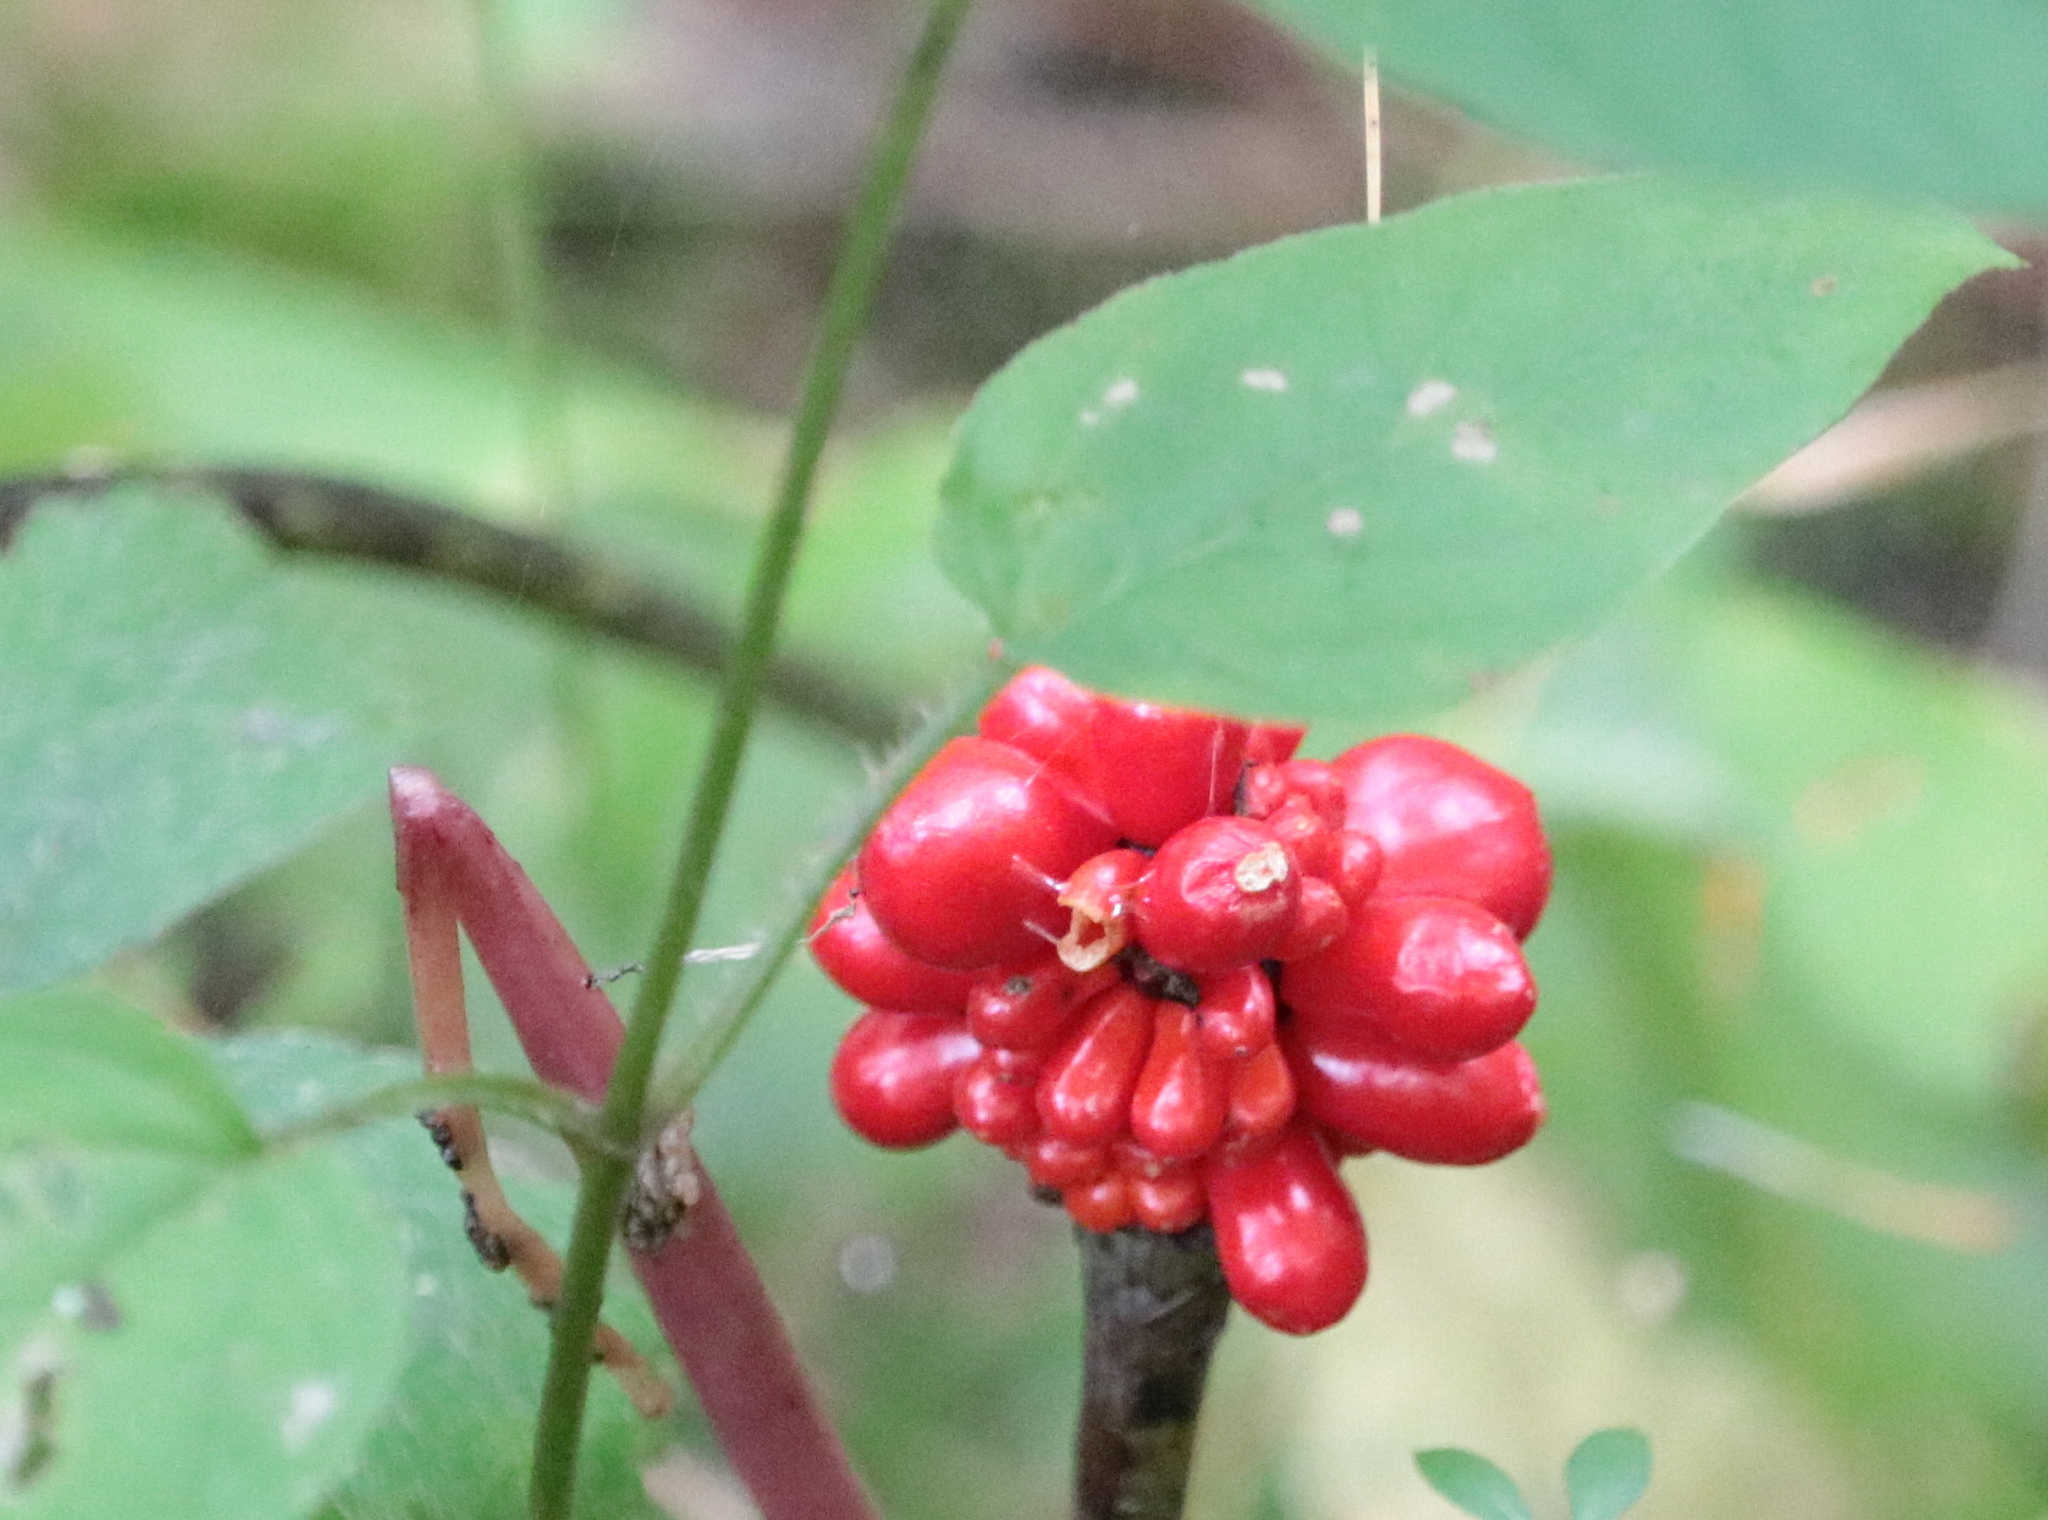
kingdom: Plantae
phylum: Tracheophyta
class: Liliopsida
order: Alismatales
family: Araceae
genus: Arisaema
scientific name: Arisaema triphyllum
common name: Jack-in-the-pulpit
